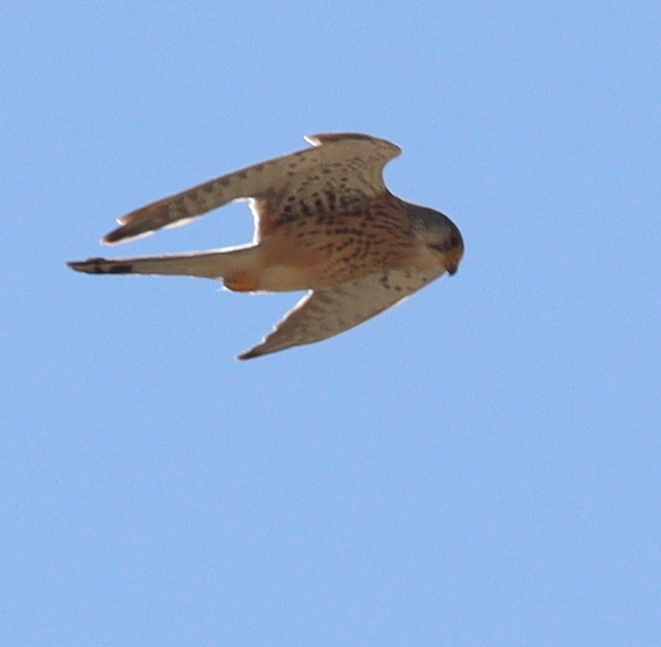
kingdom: Animalia
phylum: Chordata
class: Aves
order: Falconiformes
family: Falconidae
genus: Falco
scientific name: Falco tinnunculus
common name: Common kestrel
